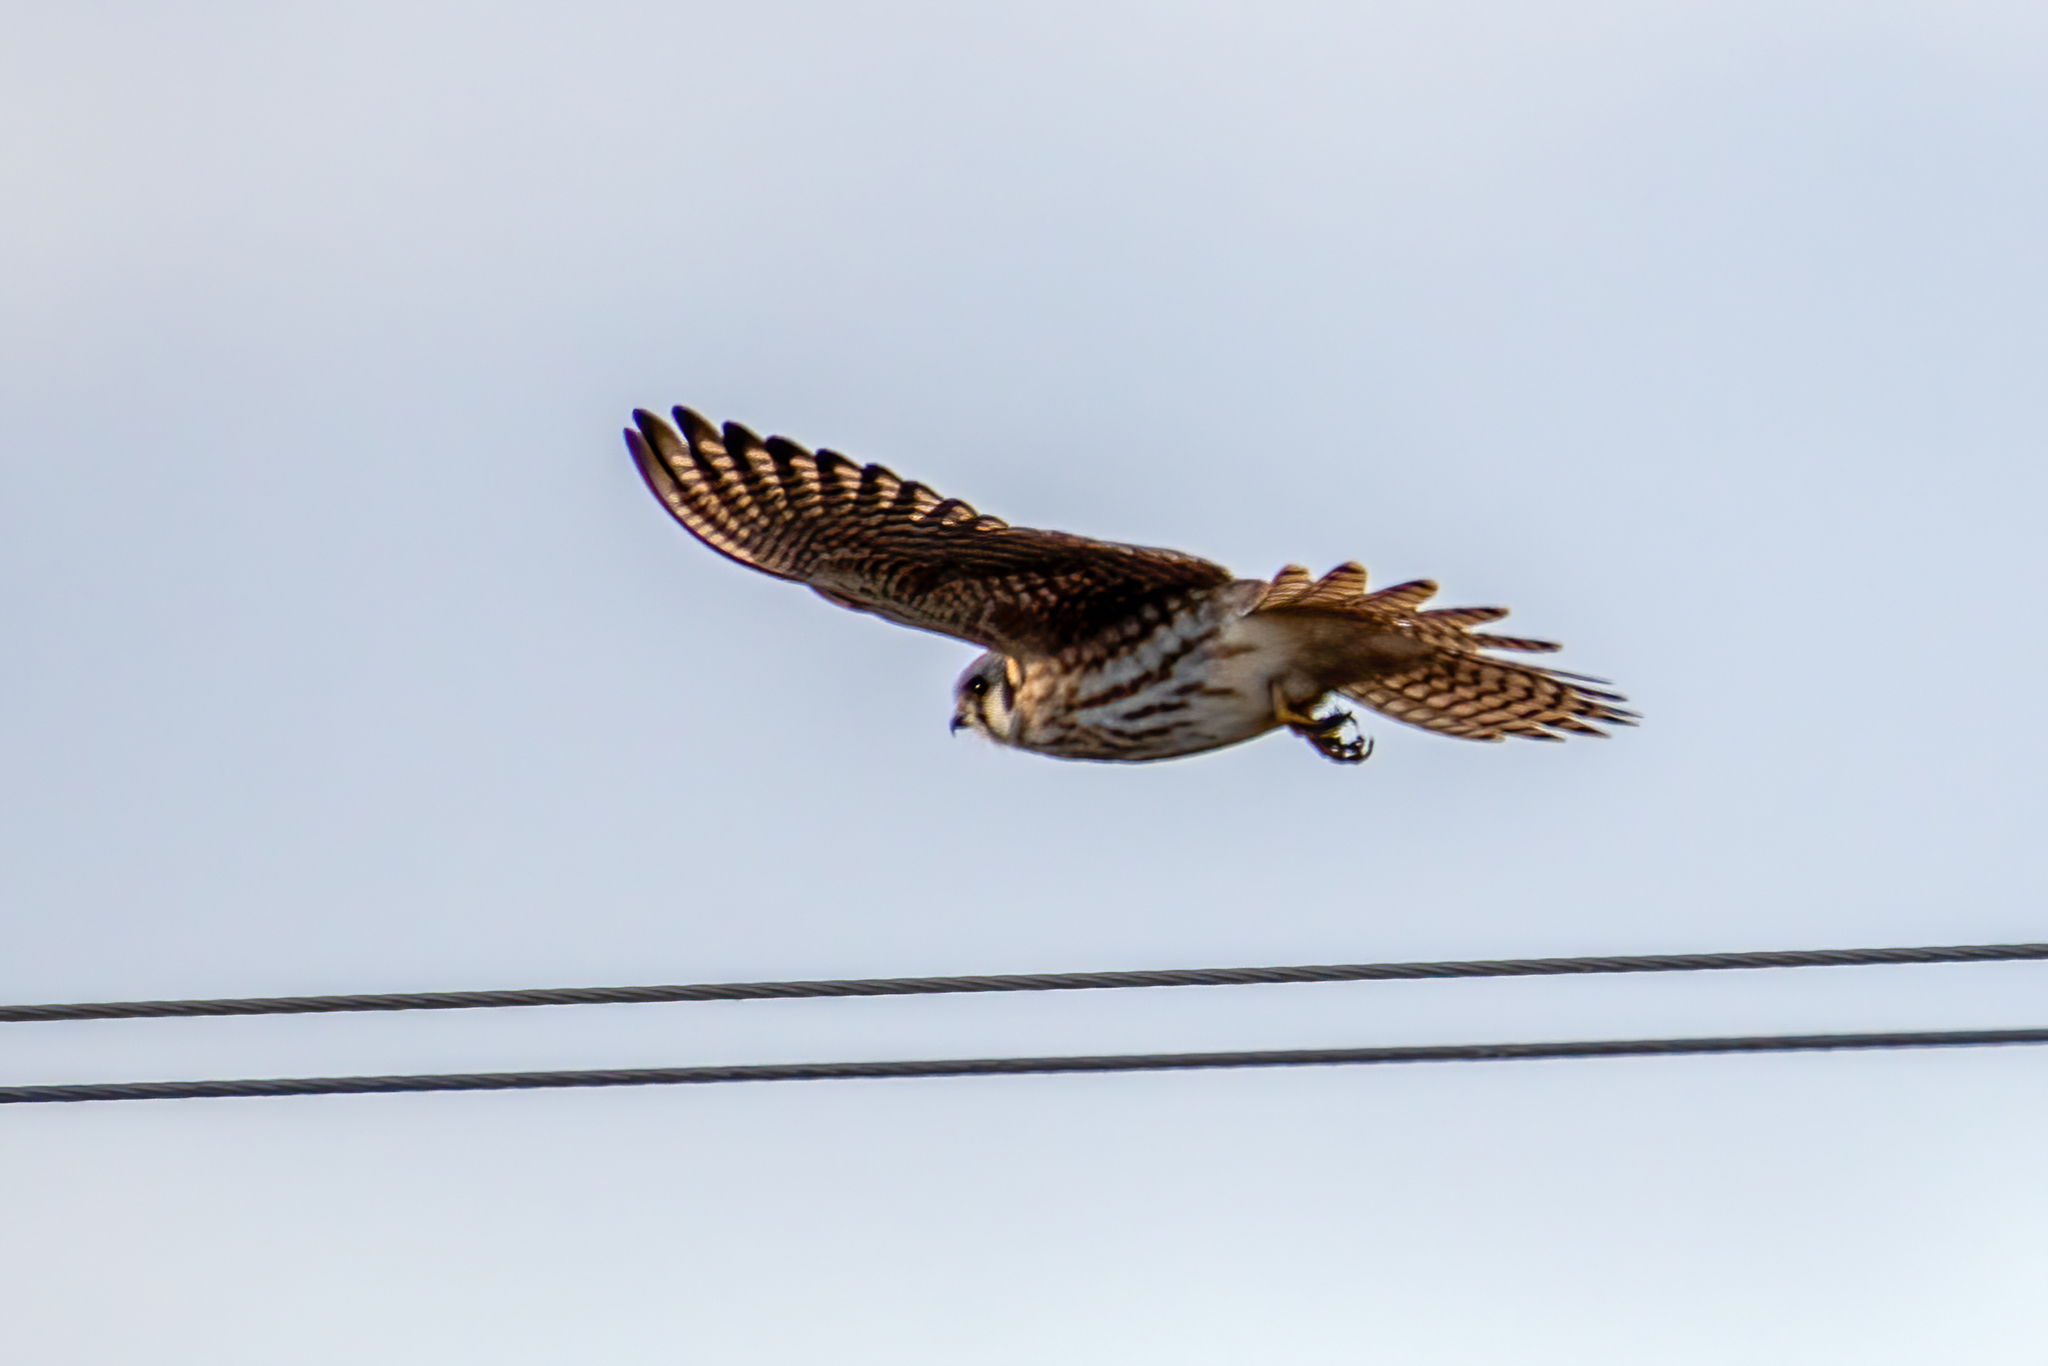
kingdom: Animalia
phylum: Chordata
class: Aves
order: Falconiformes
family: Falconidae
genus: Falco
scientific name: Falco sparverius
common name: American kestrel
